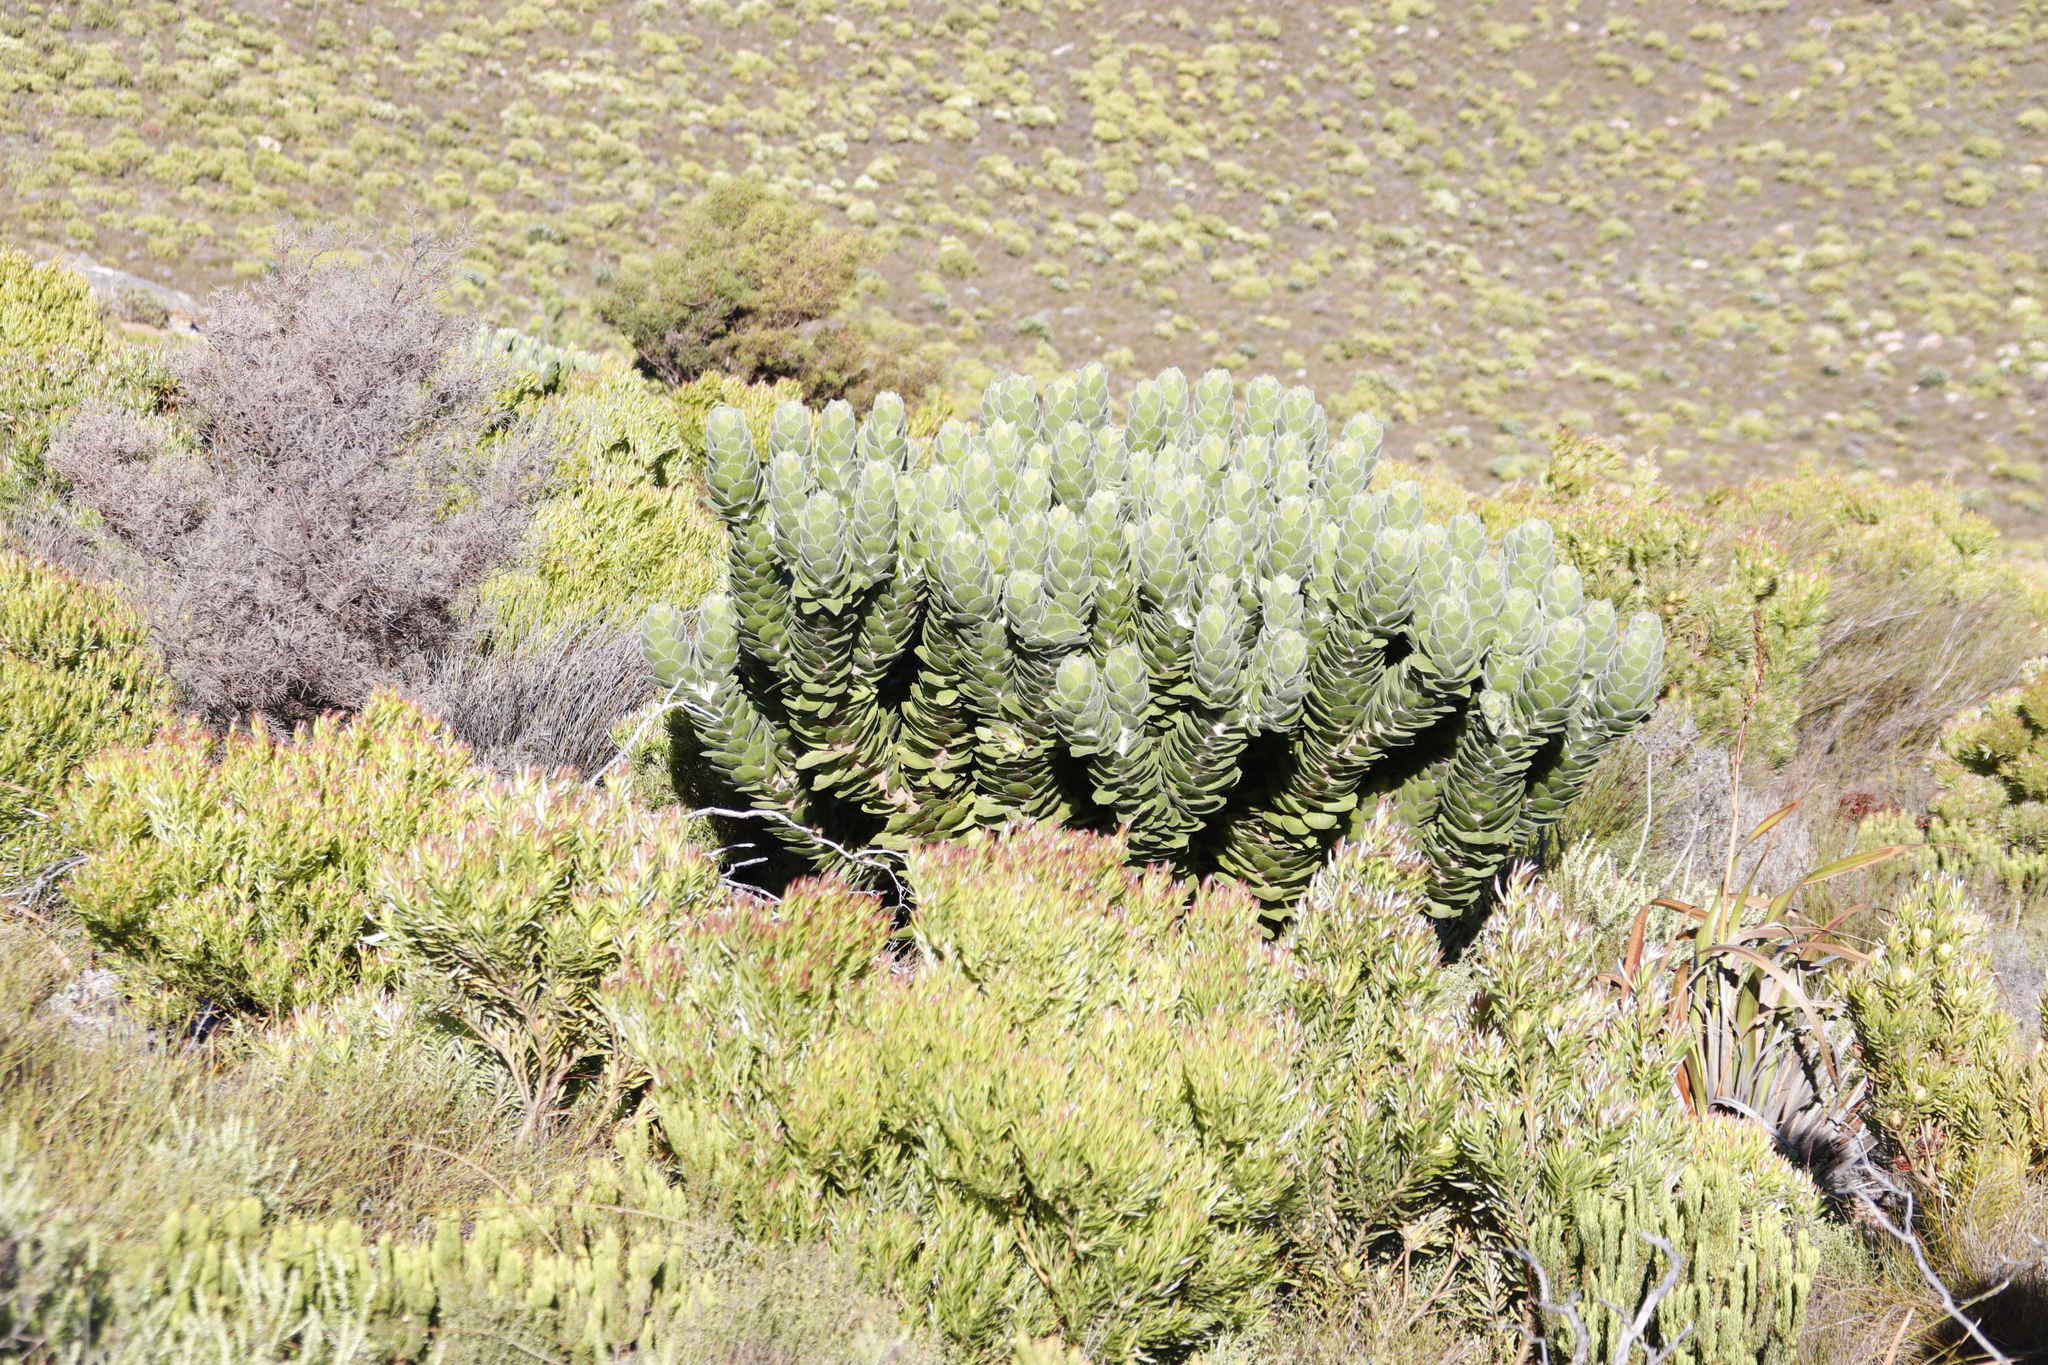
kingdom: Plantae
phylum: Tracheophyta
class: Magnoliopsida
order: Proteales
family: Proteaceae
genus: Leucospermum
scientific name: Leucospermum conocarpodendron
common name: Tree pincushion
